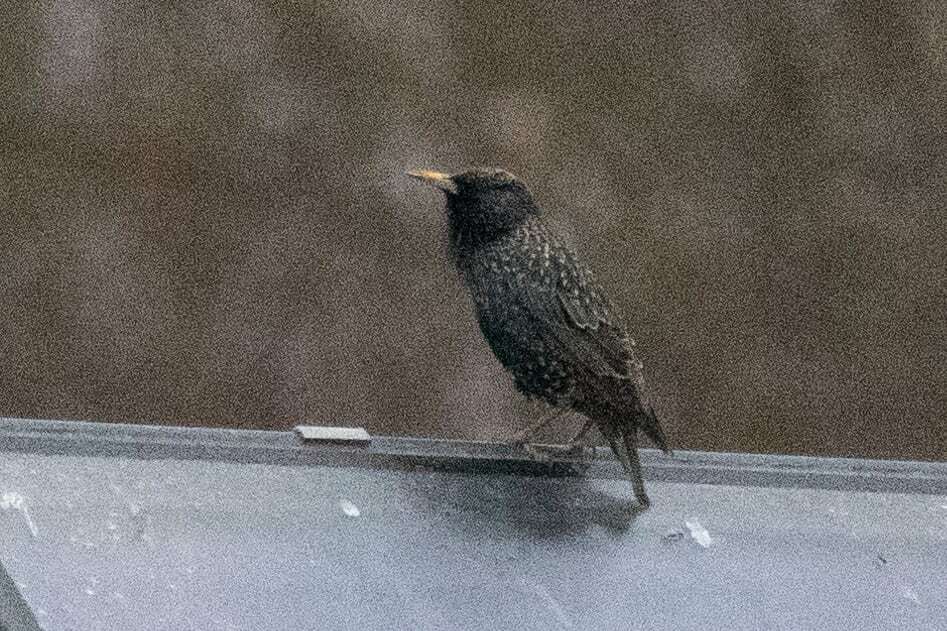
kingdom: Animalia
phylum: Chordata
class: Aves
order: Passeriformes
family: Sturnidae
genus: Sturnus
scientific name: Sturnus vulgaris
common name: Common starling
